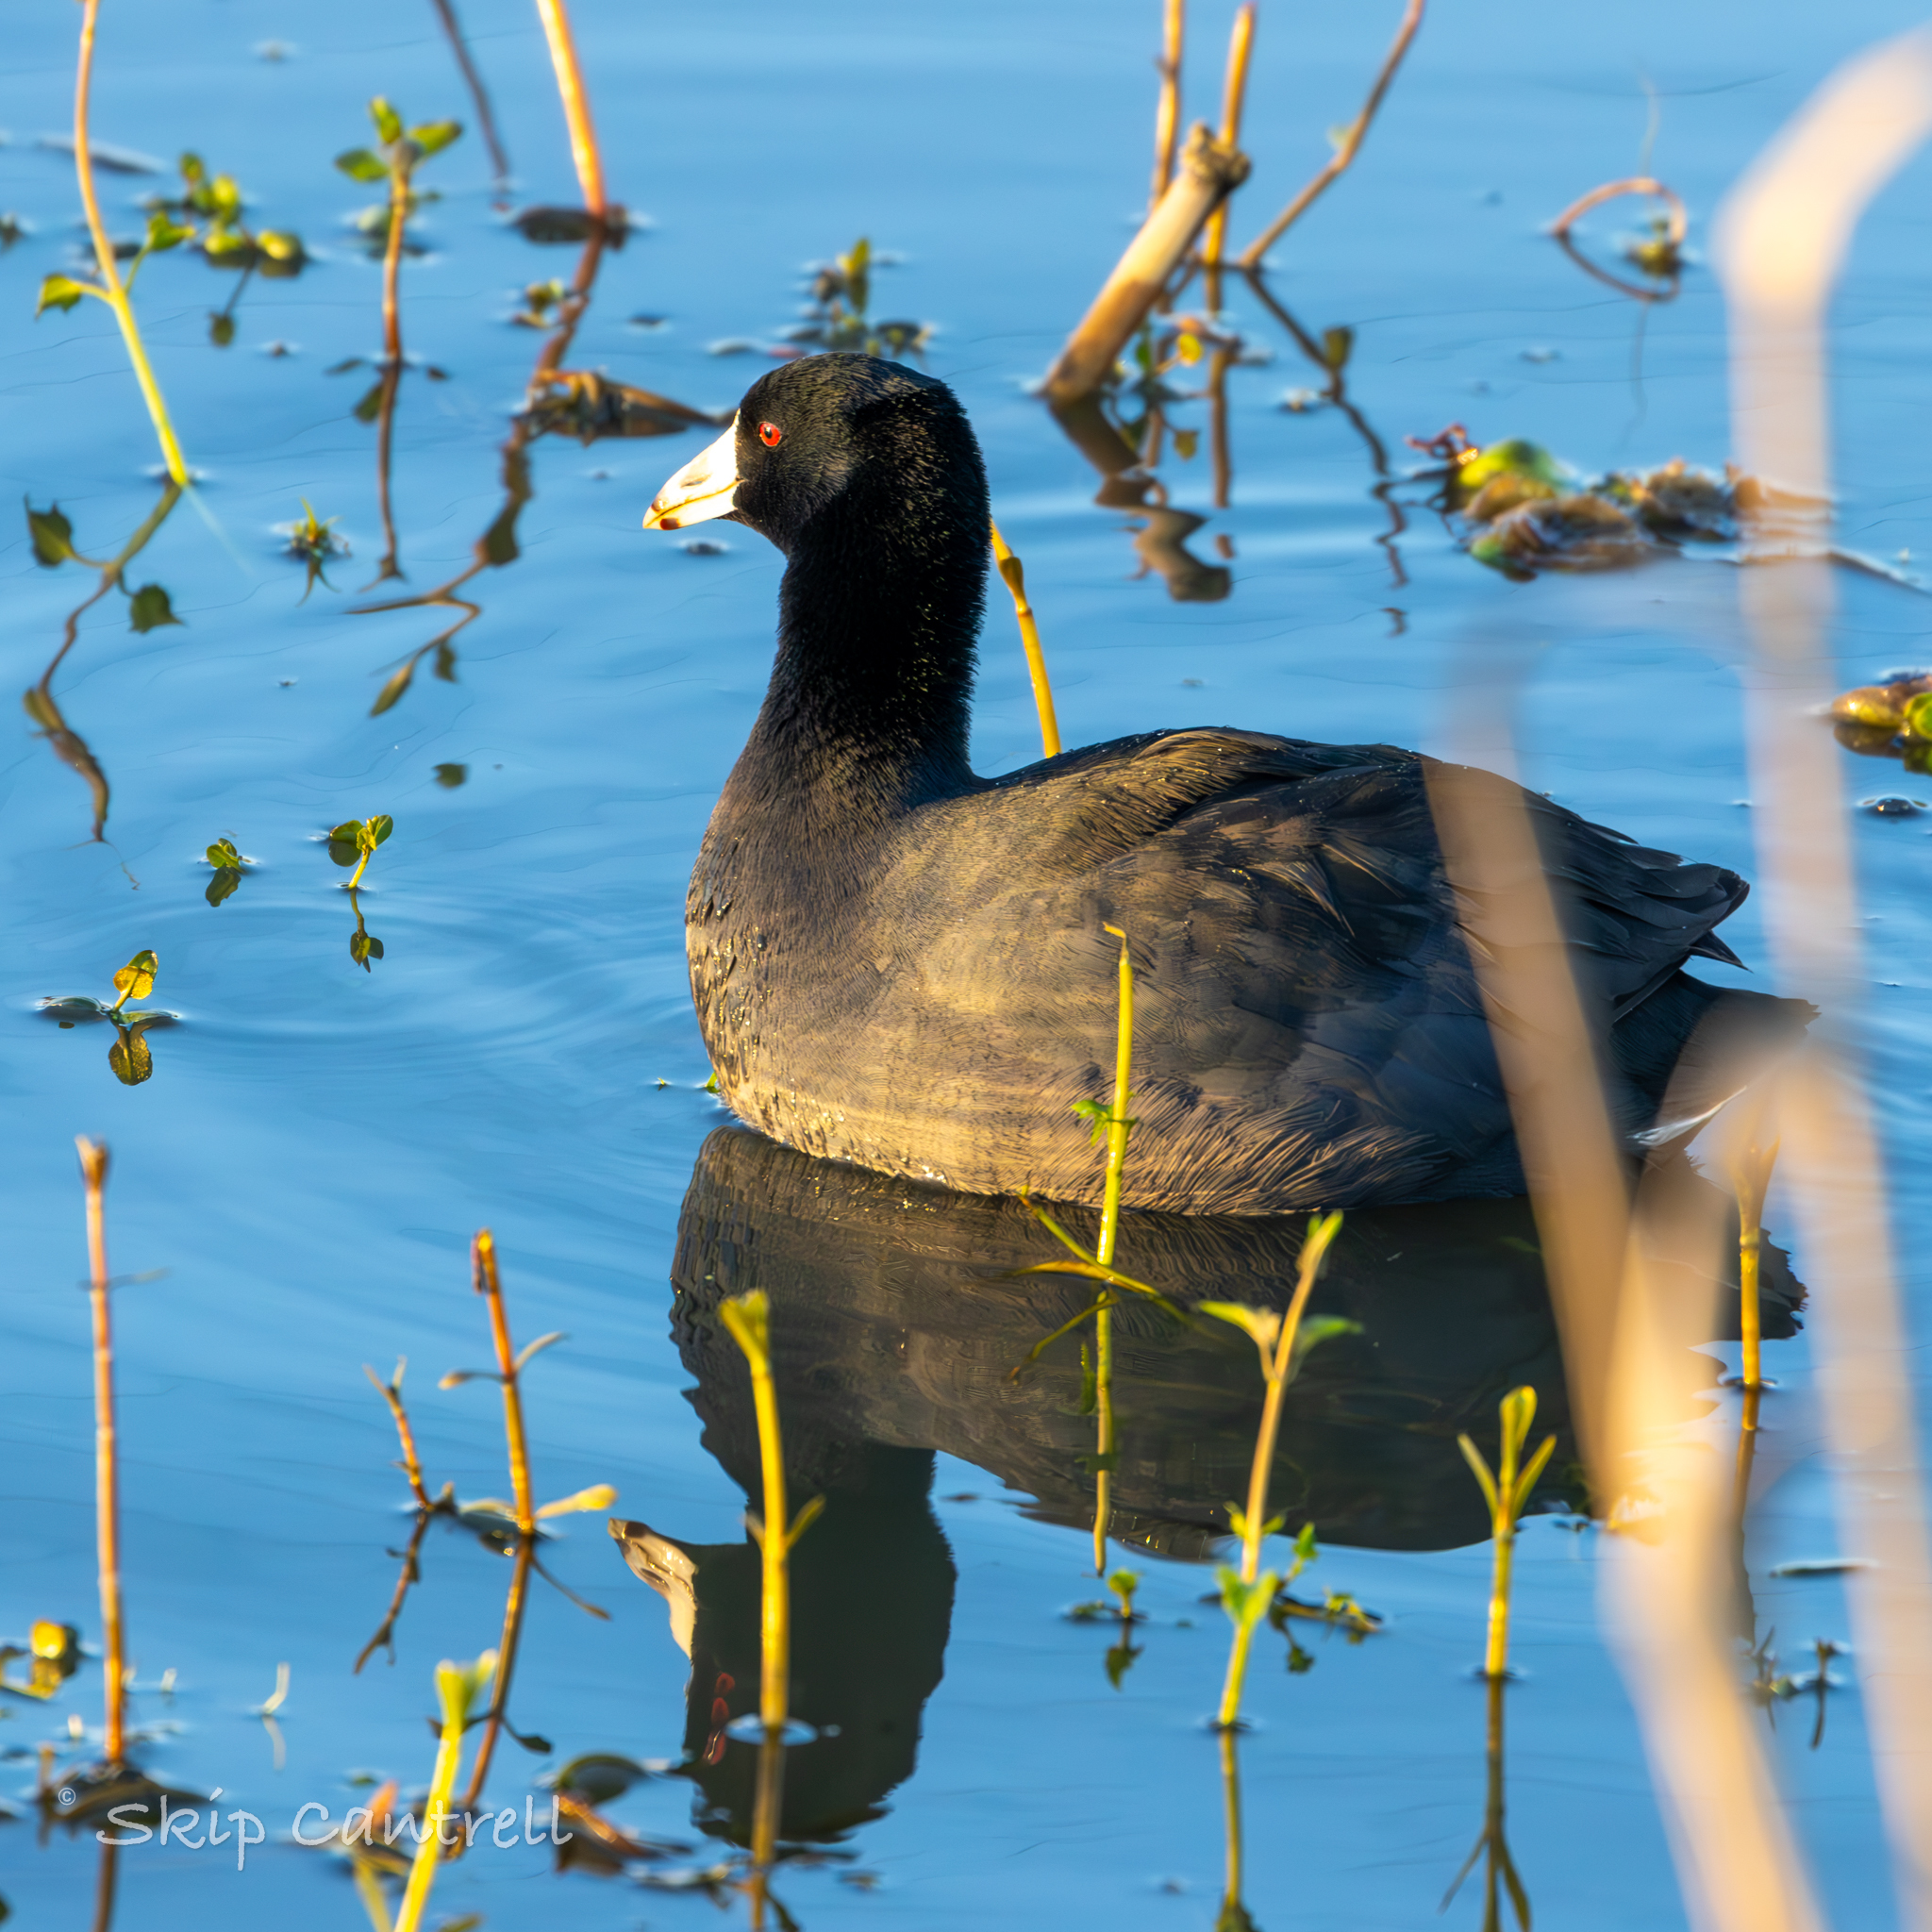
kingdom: Animalia
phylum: Chordata
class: Aves
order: Gruiformes
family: Rallidae
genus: Fulica
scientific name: Fulica americana
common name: American coot
